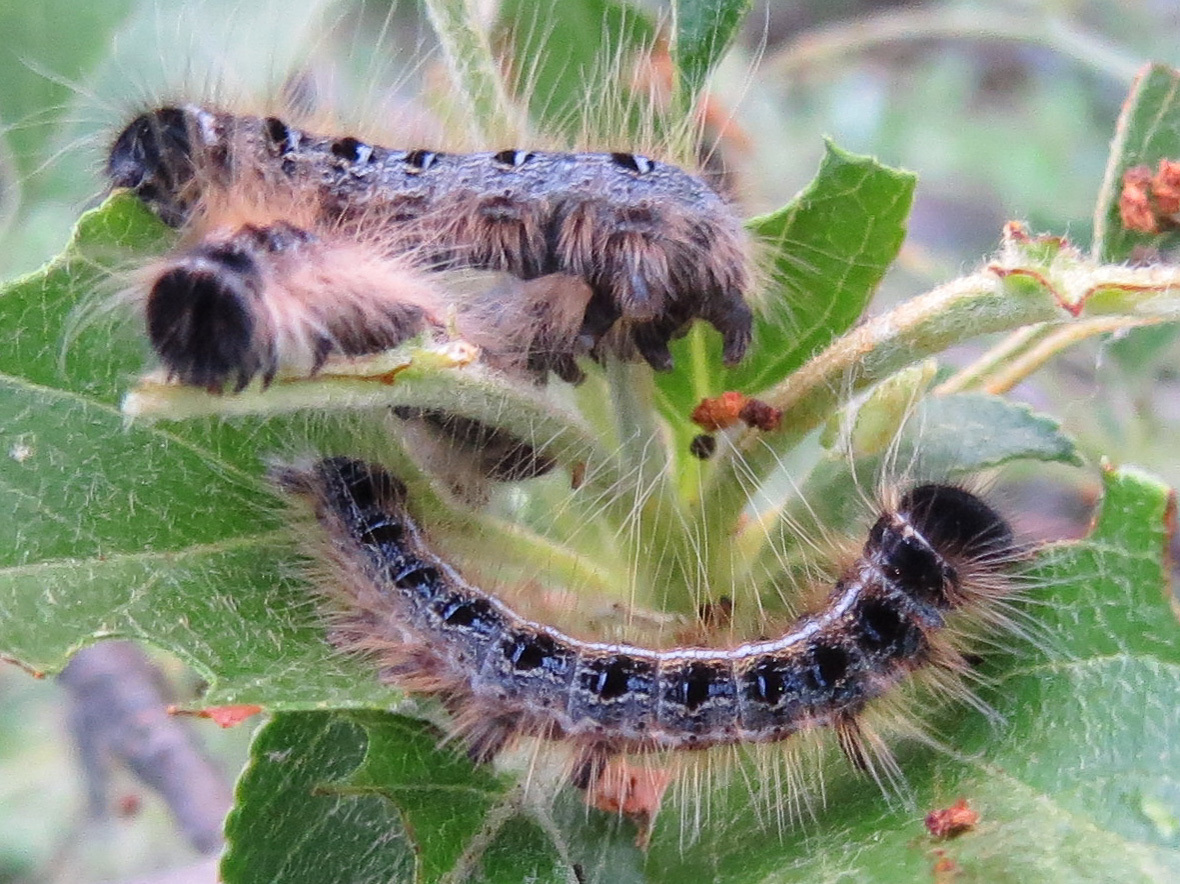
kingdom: Animalia
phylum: Arthropoda
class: Insecta
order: Lepidoptera
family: Lasiocampidae
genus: Malacosoma
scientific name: Malacosoma americana
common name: Eastern tent caterpillar moth
